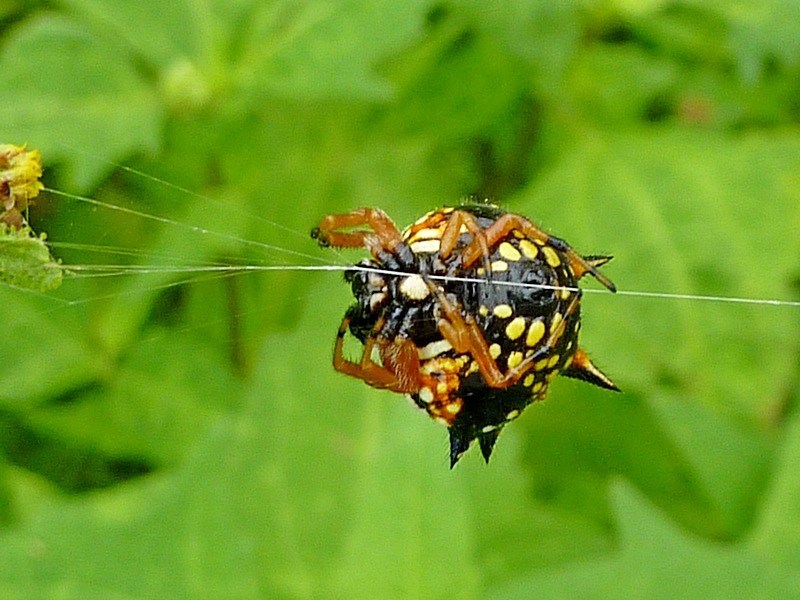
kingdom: Animalia
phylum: Arthropoda
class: Arachnida
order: Araneae
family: Araneidae
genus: Austracantha
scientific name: Austracantha minax
